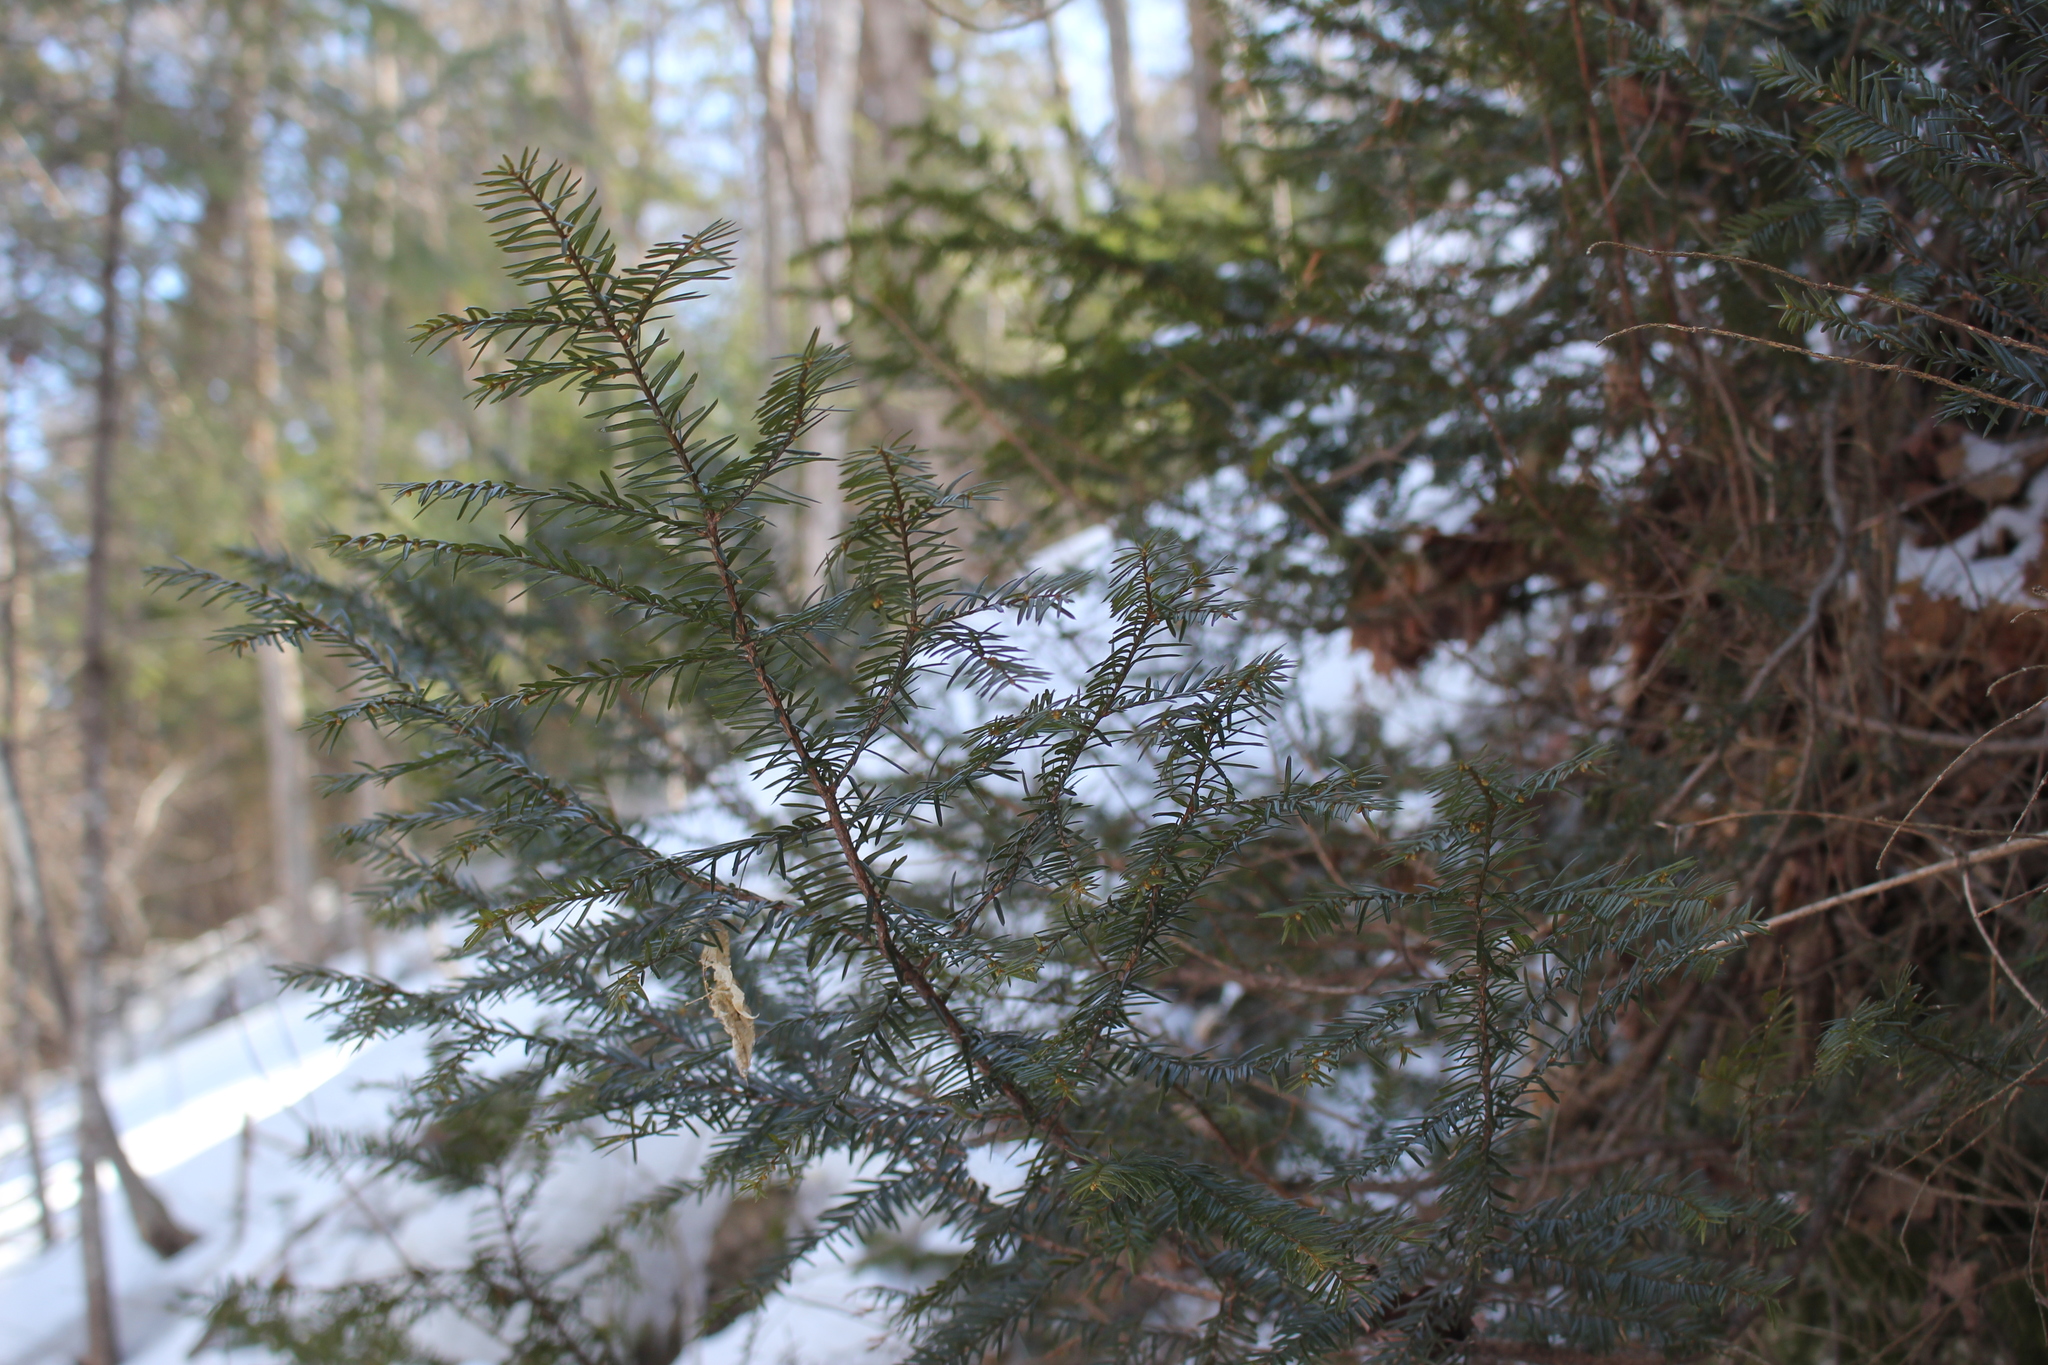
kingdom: Plantae
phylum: Tracheophyta
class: Pinopsida
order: Pinales
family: Taxaceae
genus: Taxus
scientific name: Taxus canadensis
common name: American yew
